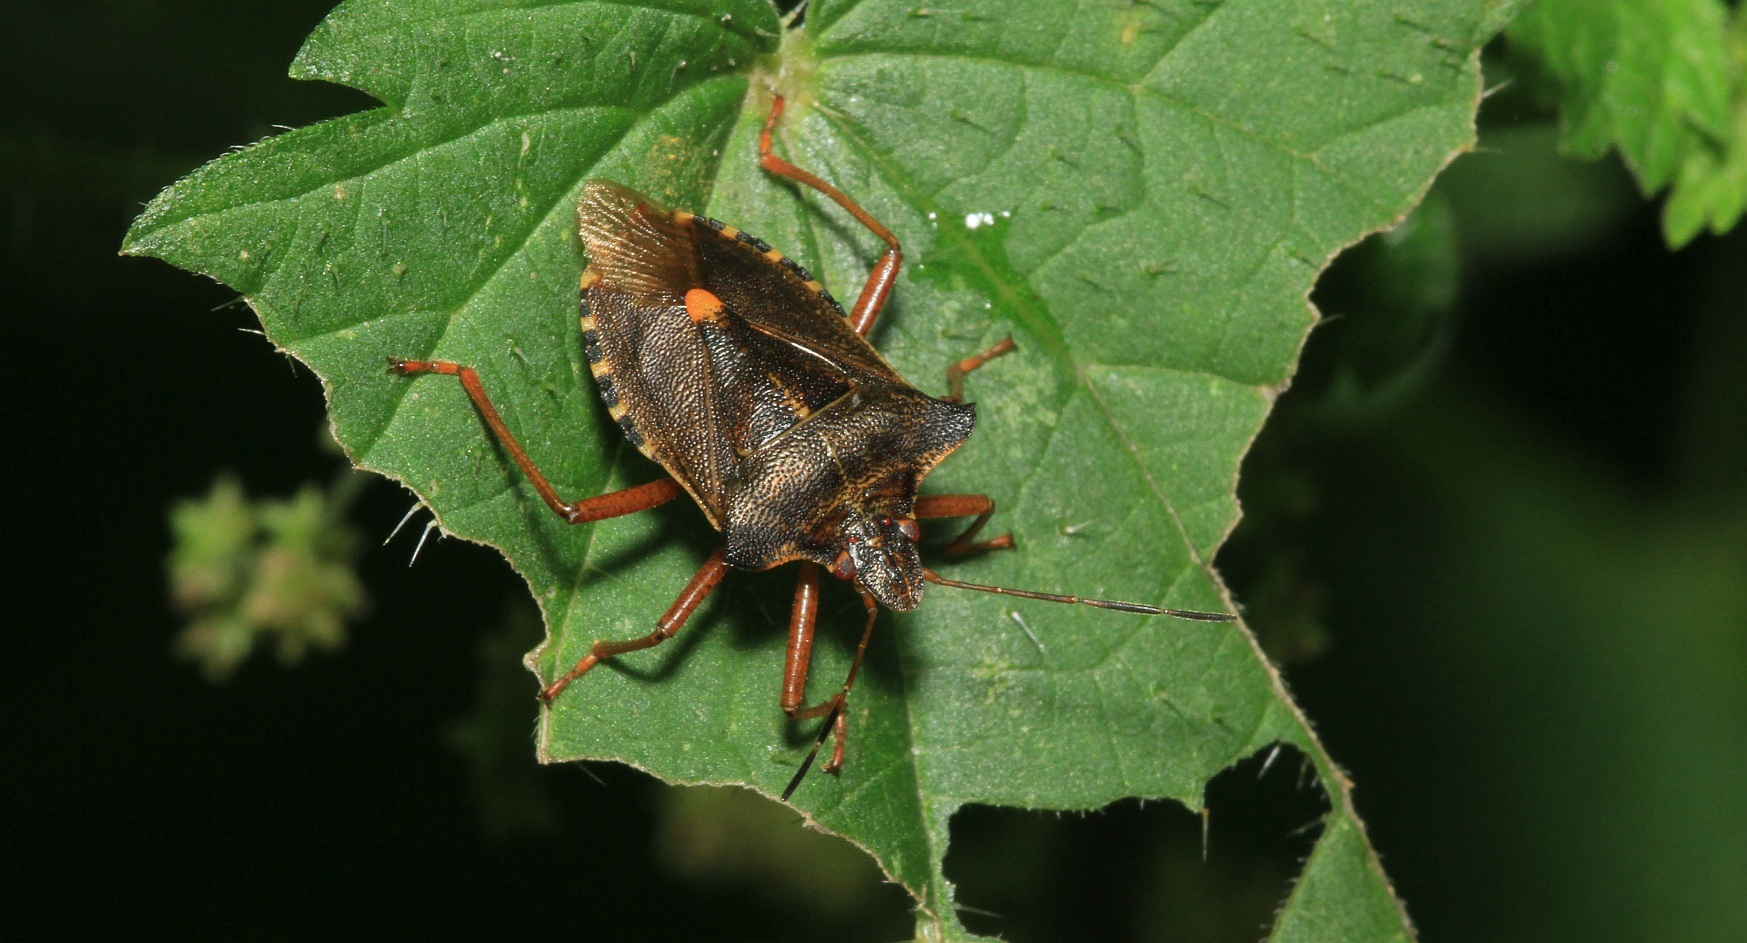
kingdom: Animalia
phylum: Arthropoda
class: Insecta
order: Hemiptera
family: Pentatomidae
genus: Pentatoma
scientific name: Pentatoma rufipes
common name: Forest bug
